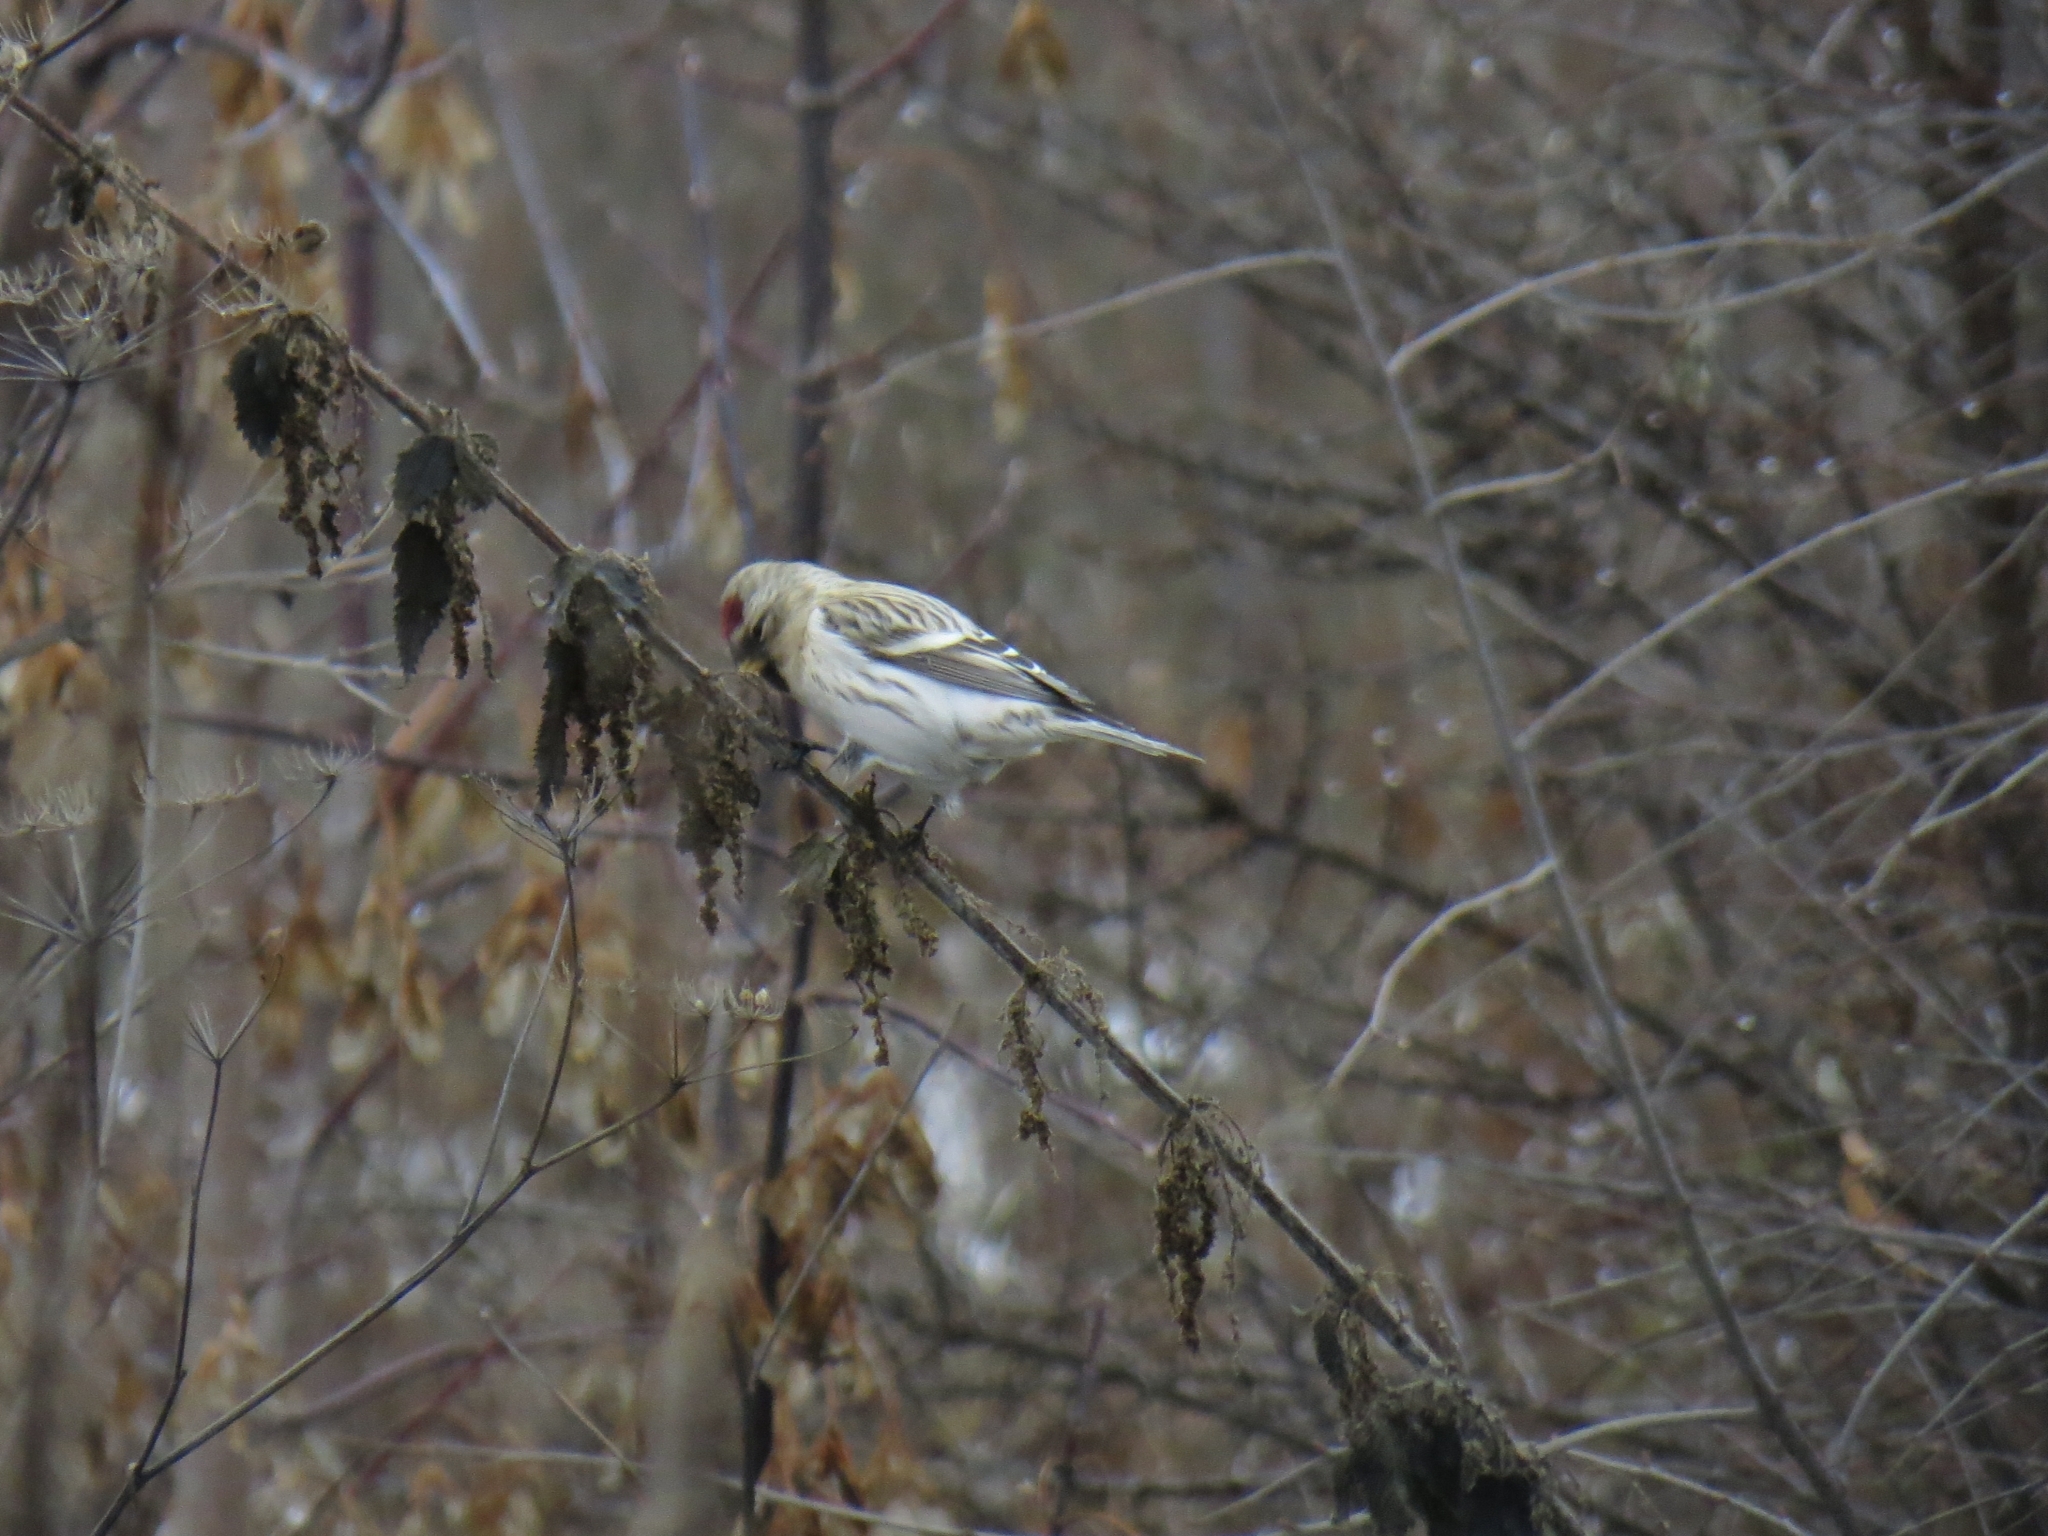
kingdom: Animalia
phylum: Chordata
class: Aves
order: Passeriformes
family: Fringillidae
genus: Acanthis
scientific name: Acanthis hornemanni
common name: Arctic redpoll
